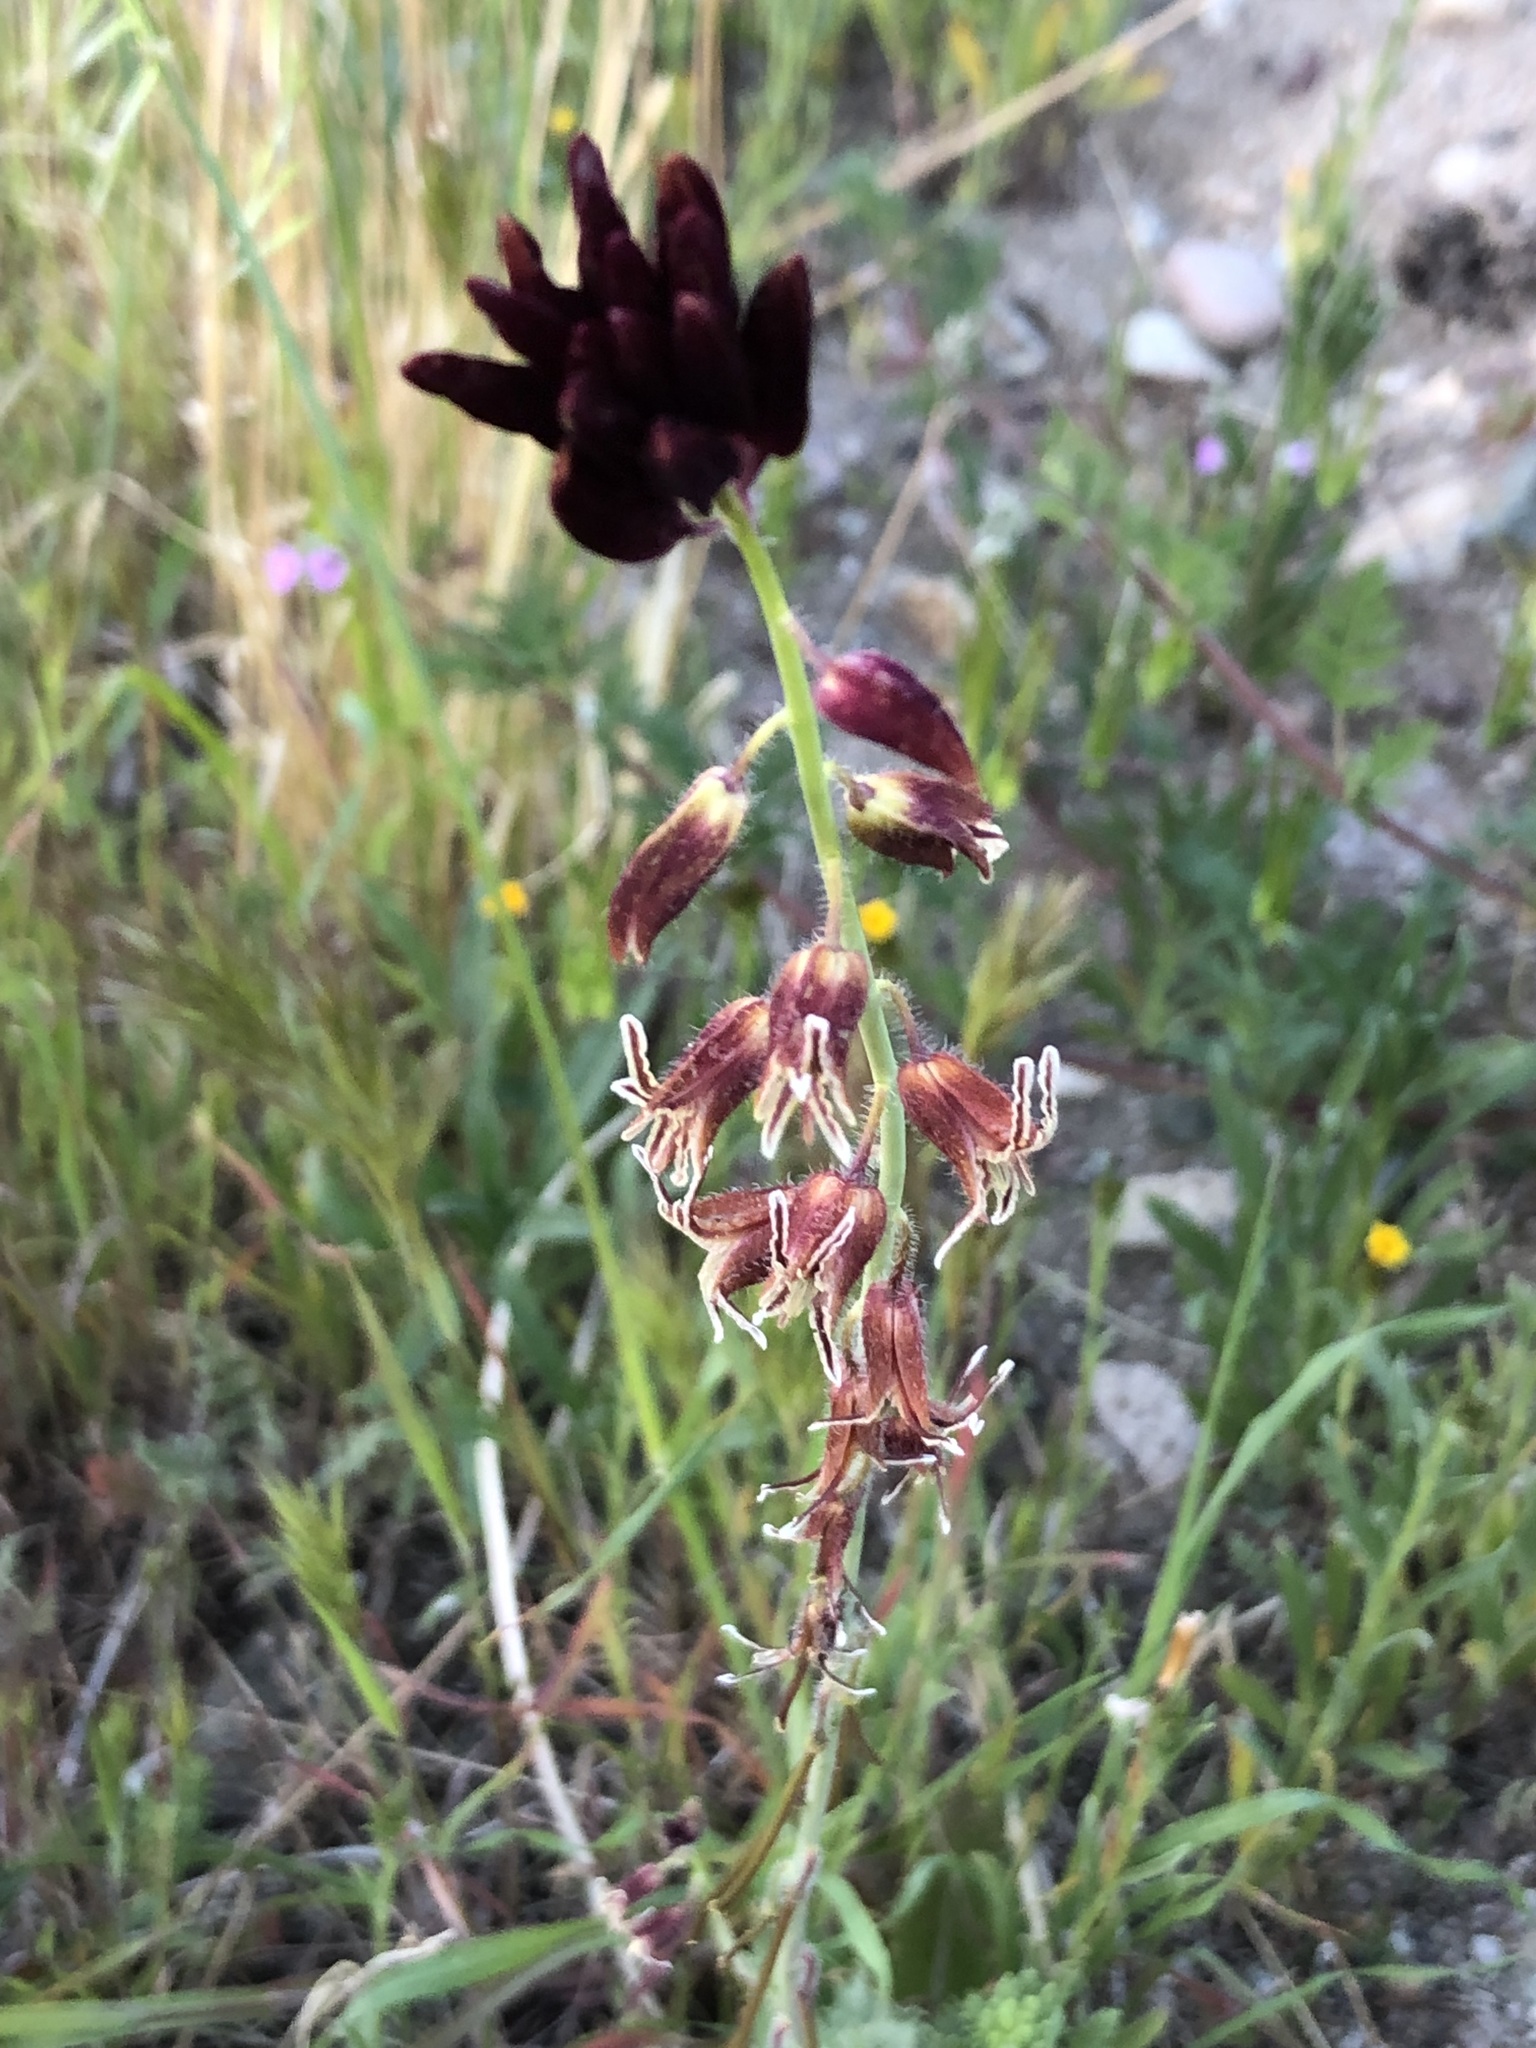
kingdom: Plantae
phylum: Tracheophyta
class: Magnoliopsida
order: Brassicales
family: Brassicaceae
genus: Streptanthus
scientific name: Streptanthus coulteri
